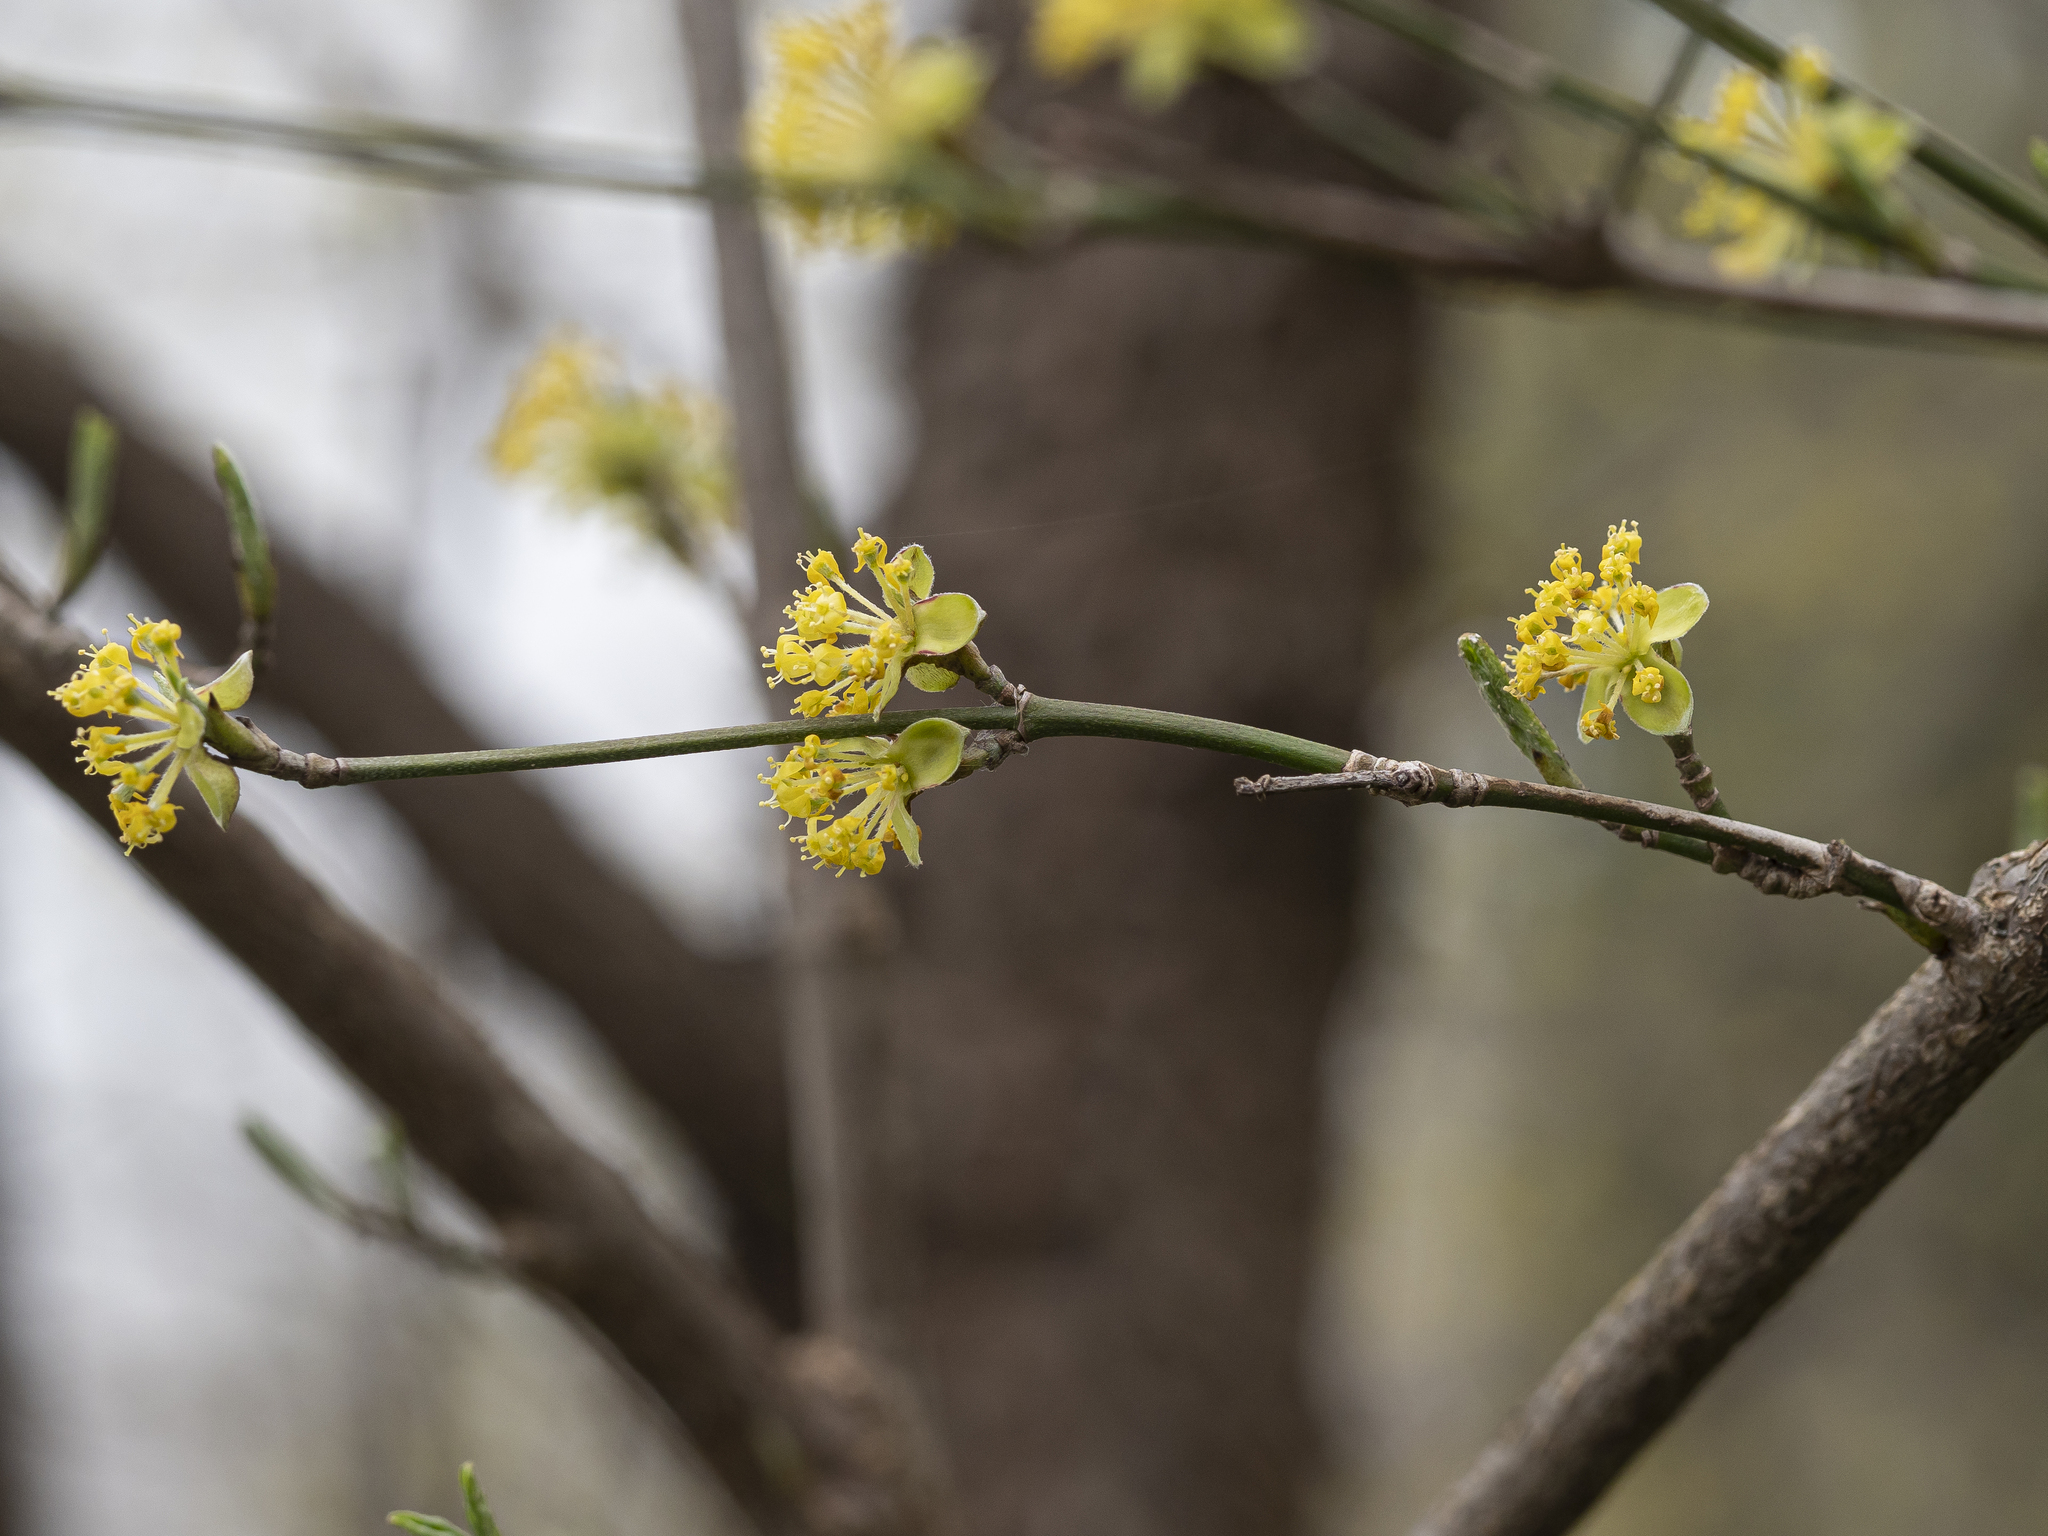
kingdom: Plantae
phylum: Tracheophyta
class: Magnoliopsida
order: Cornales
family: Cornaceae
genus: Cornus
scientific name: Cornus mas
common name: Cornelian-cherry
